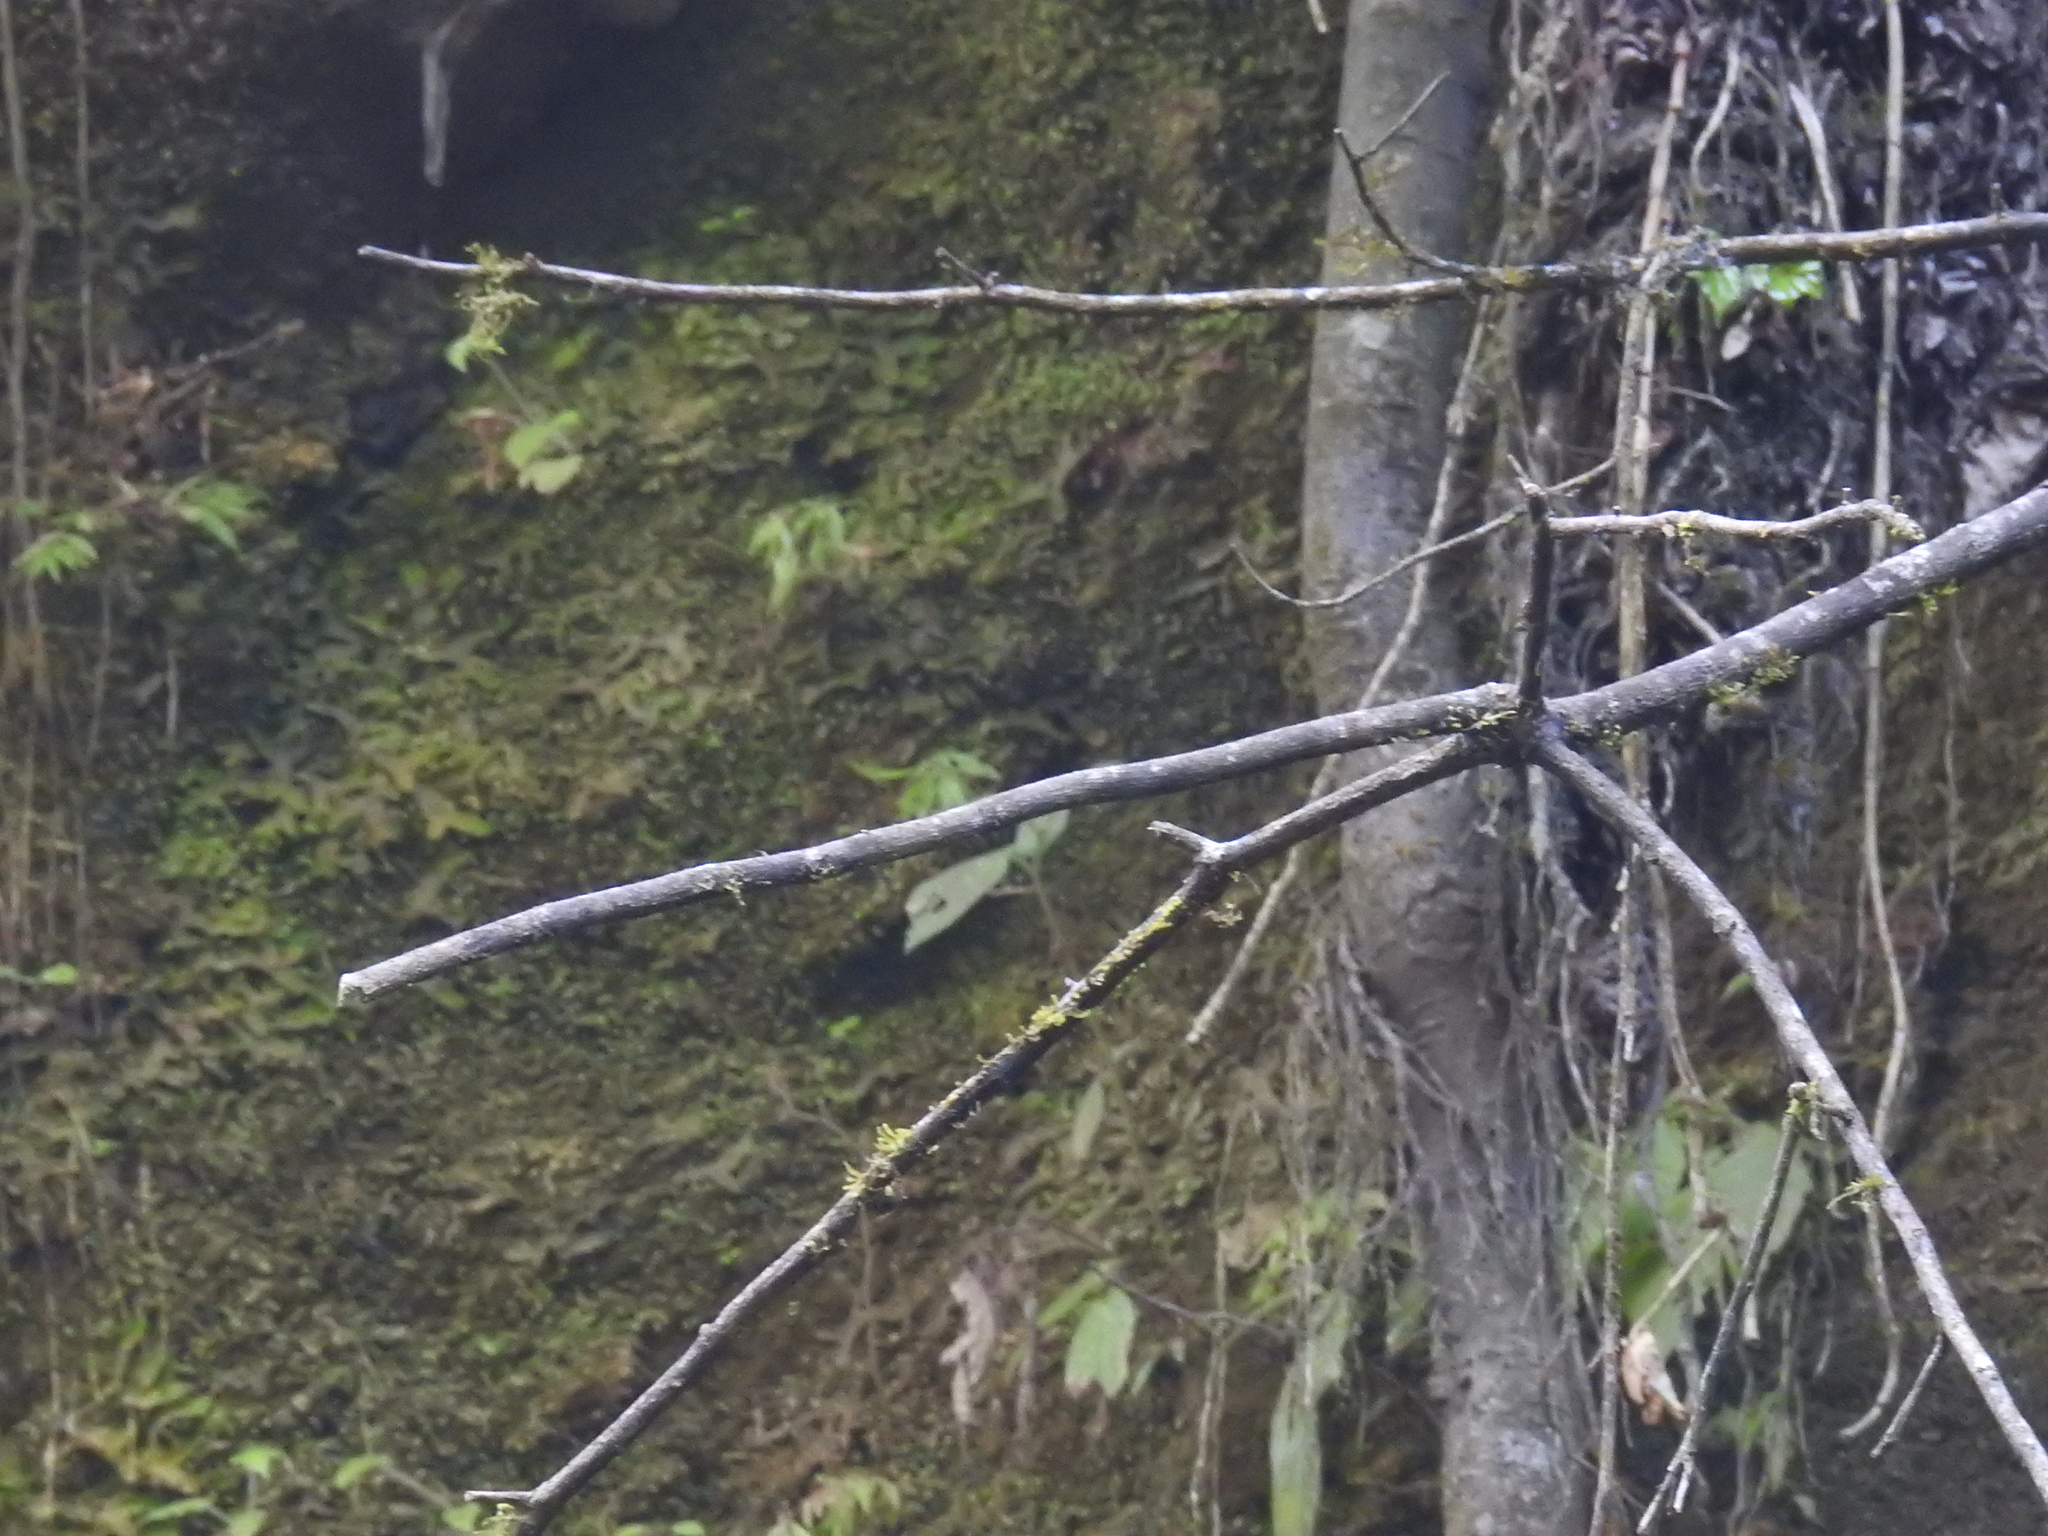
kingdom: Animalia
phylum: Chordata
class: Aves
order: Passeriformes
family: Hirundinidae
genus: Stelgidopteryx
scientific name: Stelgidopteryx serripennis
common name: Northern rough-winged swallow
